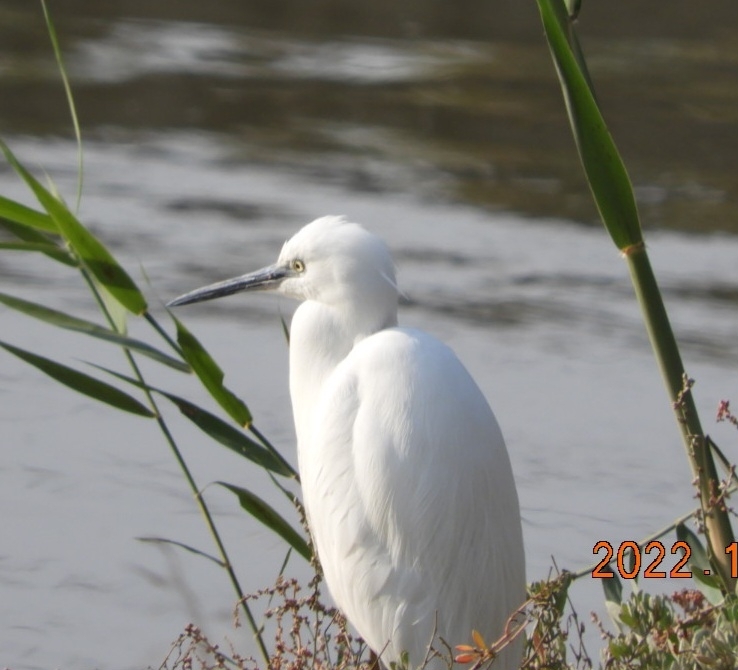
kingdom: Animalia
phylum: Chordata
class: Aves
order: Pelecaniformes
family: Ardeidae
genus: Egretta
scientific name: Egretta garzetta
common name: Little egret
